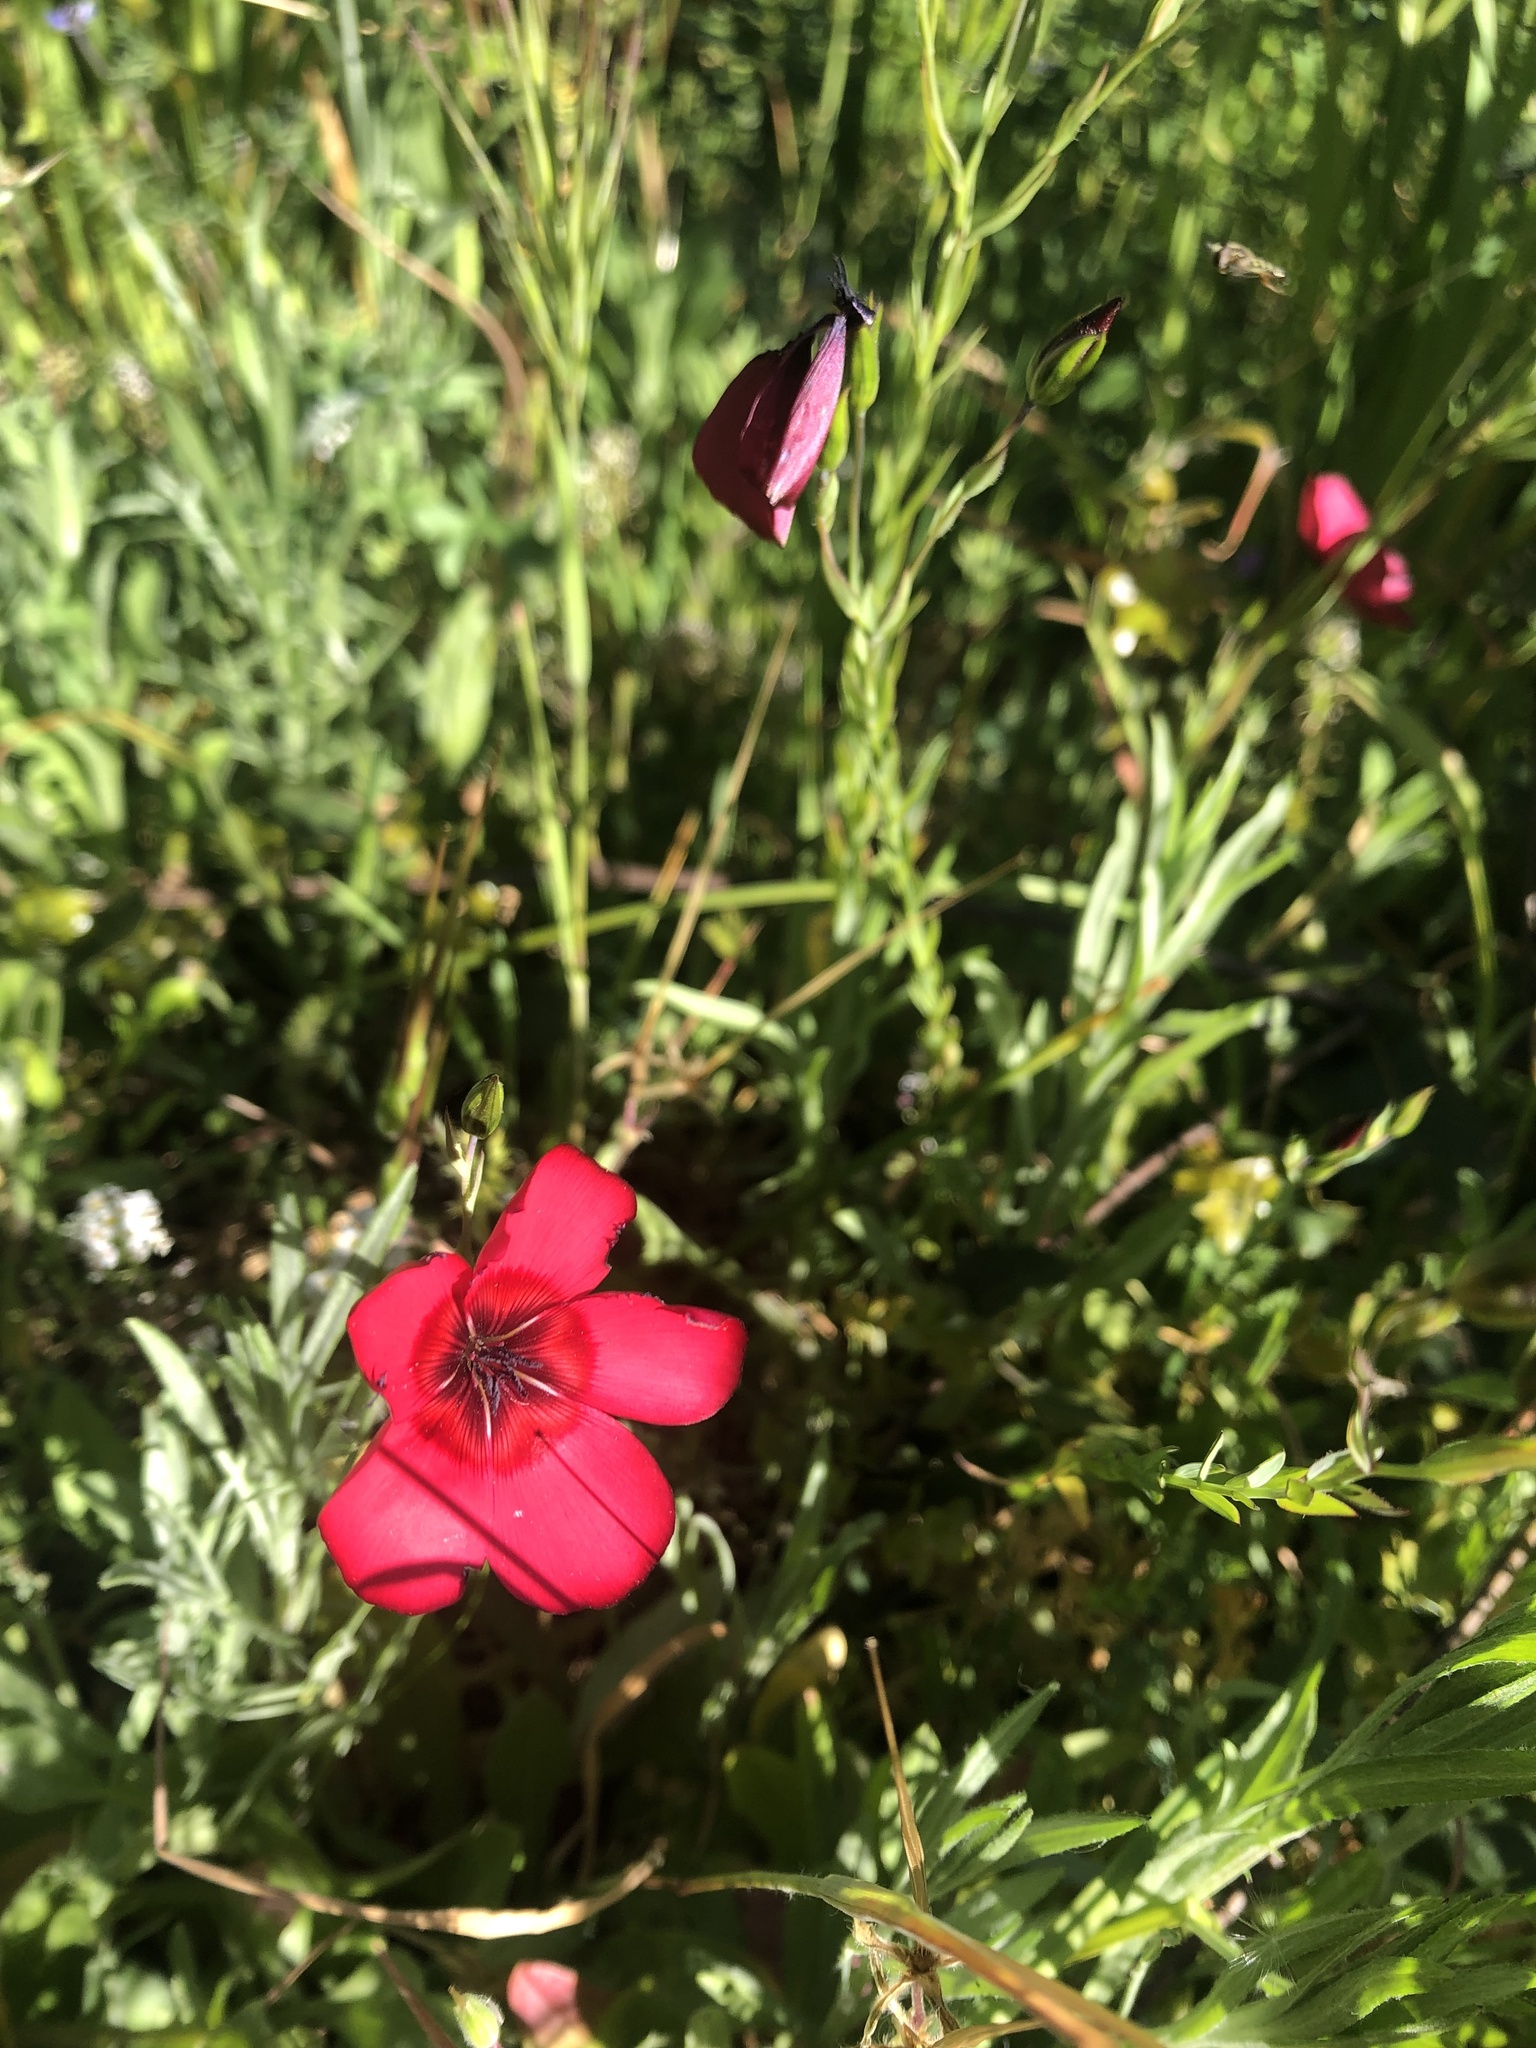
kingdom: Plantae
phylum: Tracheophyta
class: Magnoliopsida
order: Malpighiales
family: Linaceae
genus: Linum
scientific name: Linum grandiflorum
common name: Crimson flax
